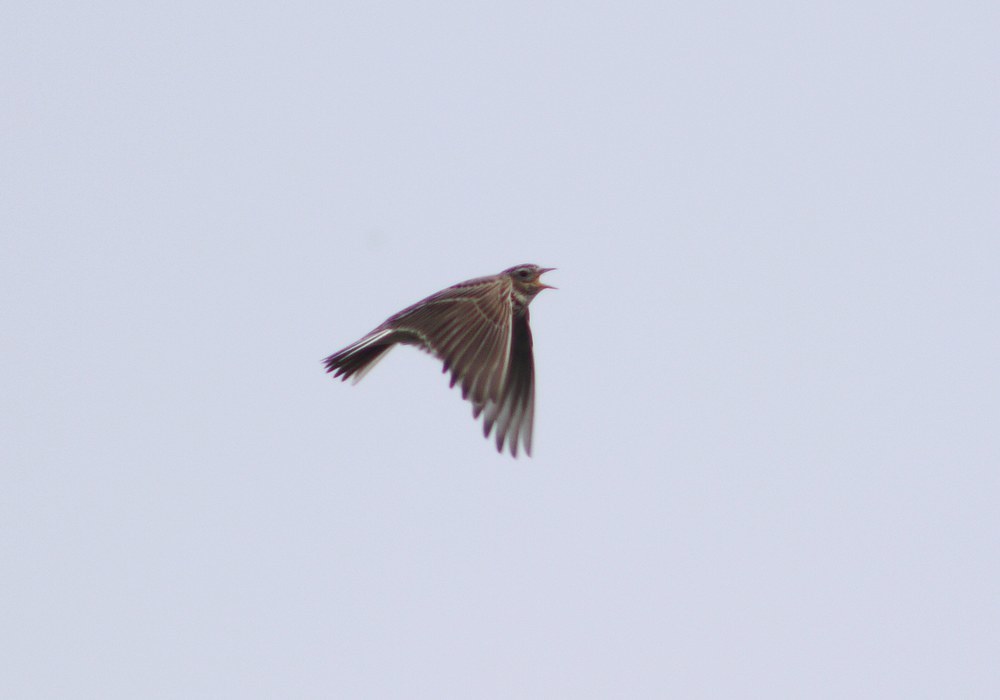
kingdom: Animalia
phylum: Chordata
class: Aves
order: Passeriformes
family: Alaudidae
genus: Alauda
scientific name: Alauda arvensis
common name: Eurasian skylark
